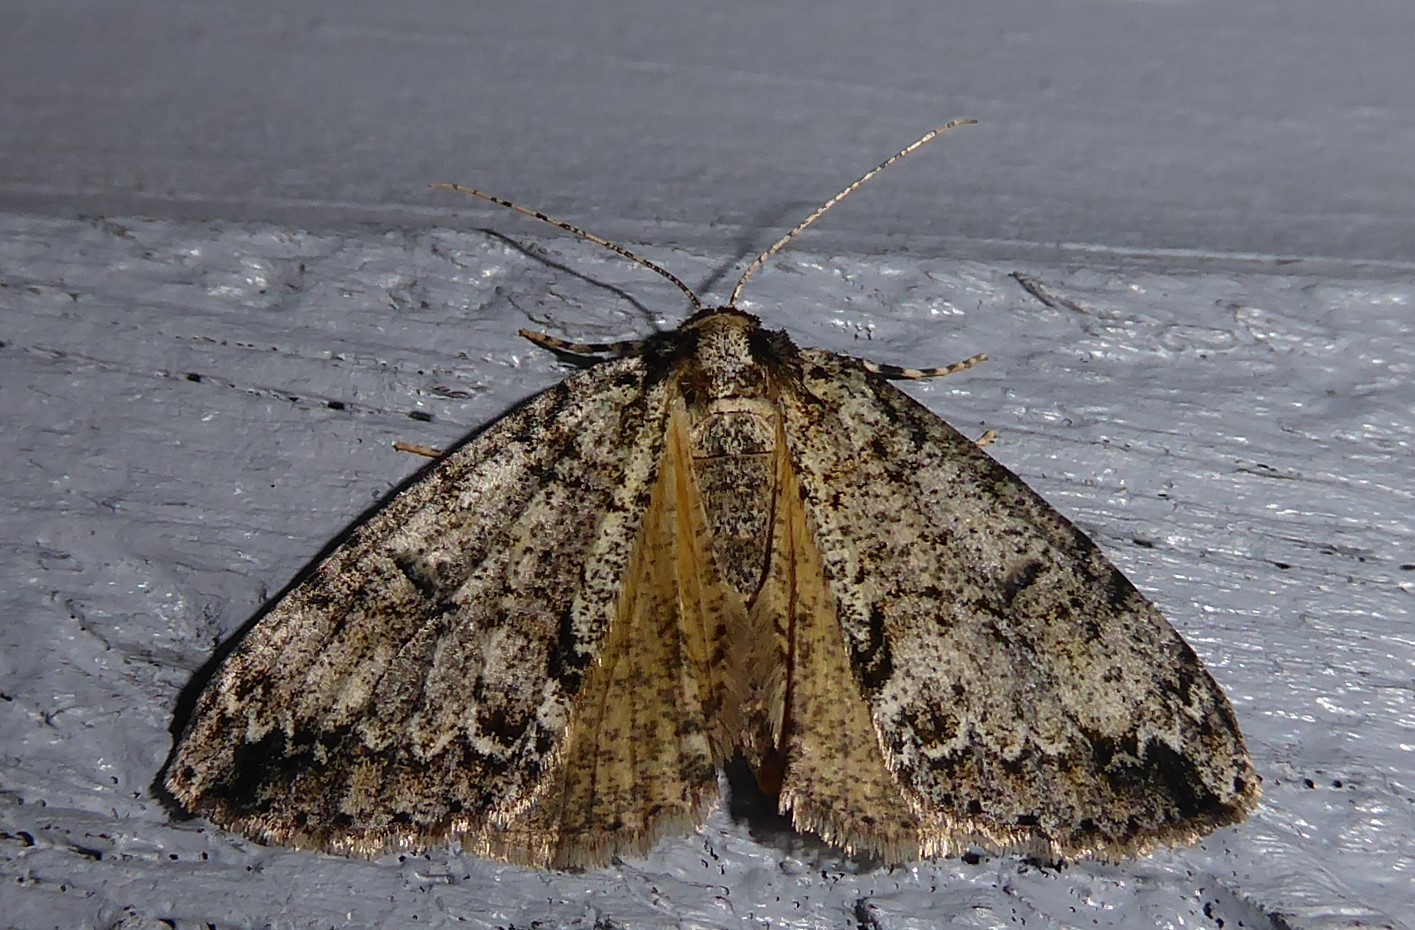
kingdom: Animalia
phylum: Arthropoda
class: Insecta
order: Lepidoptera
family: Geometridae
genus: Pseudocoremia
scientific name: Pseudocoremia suavis
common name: Common forest looper
